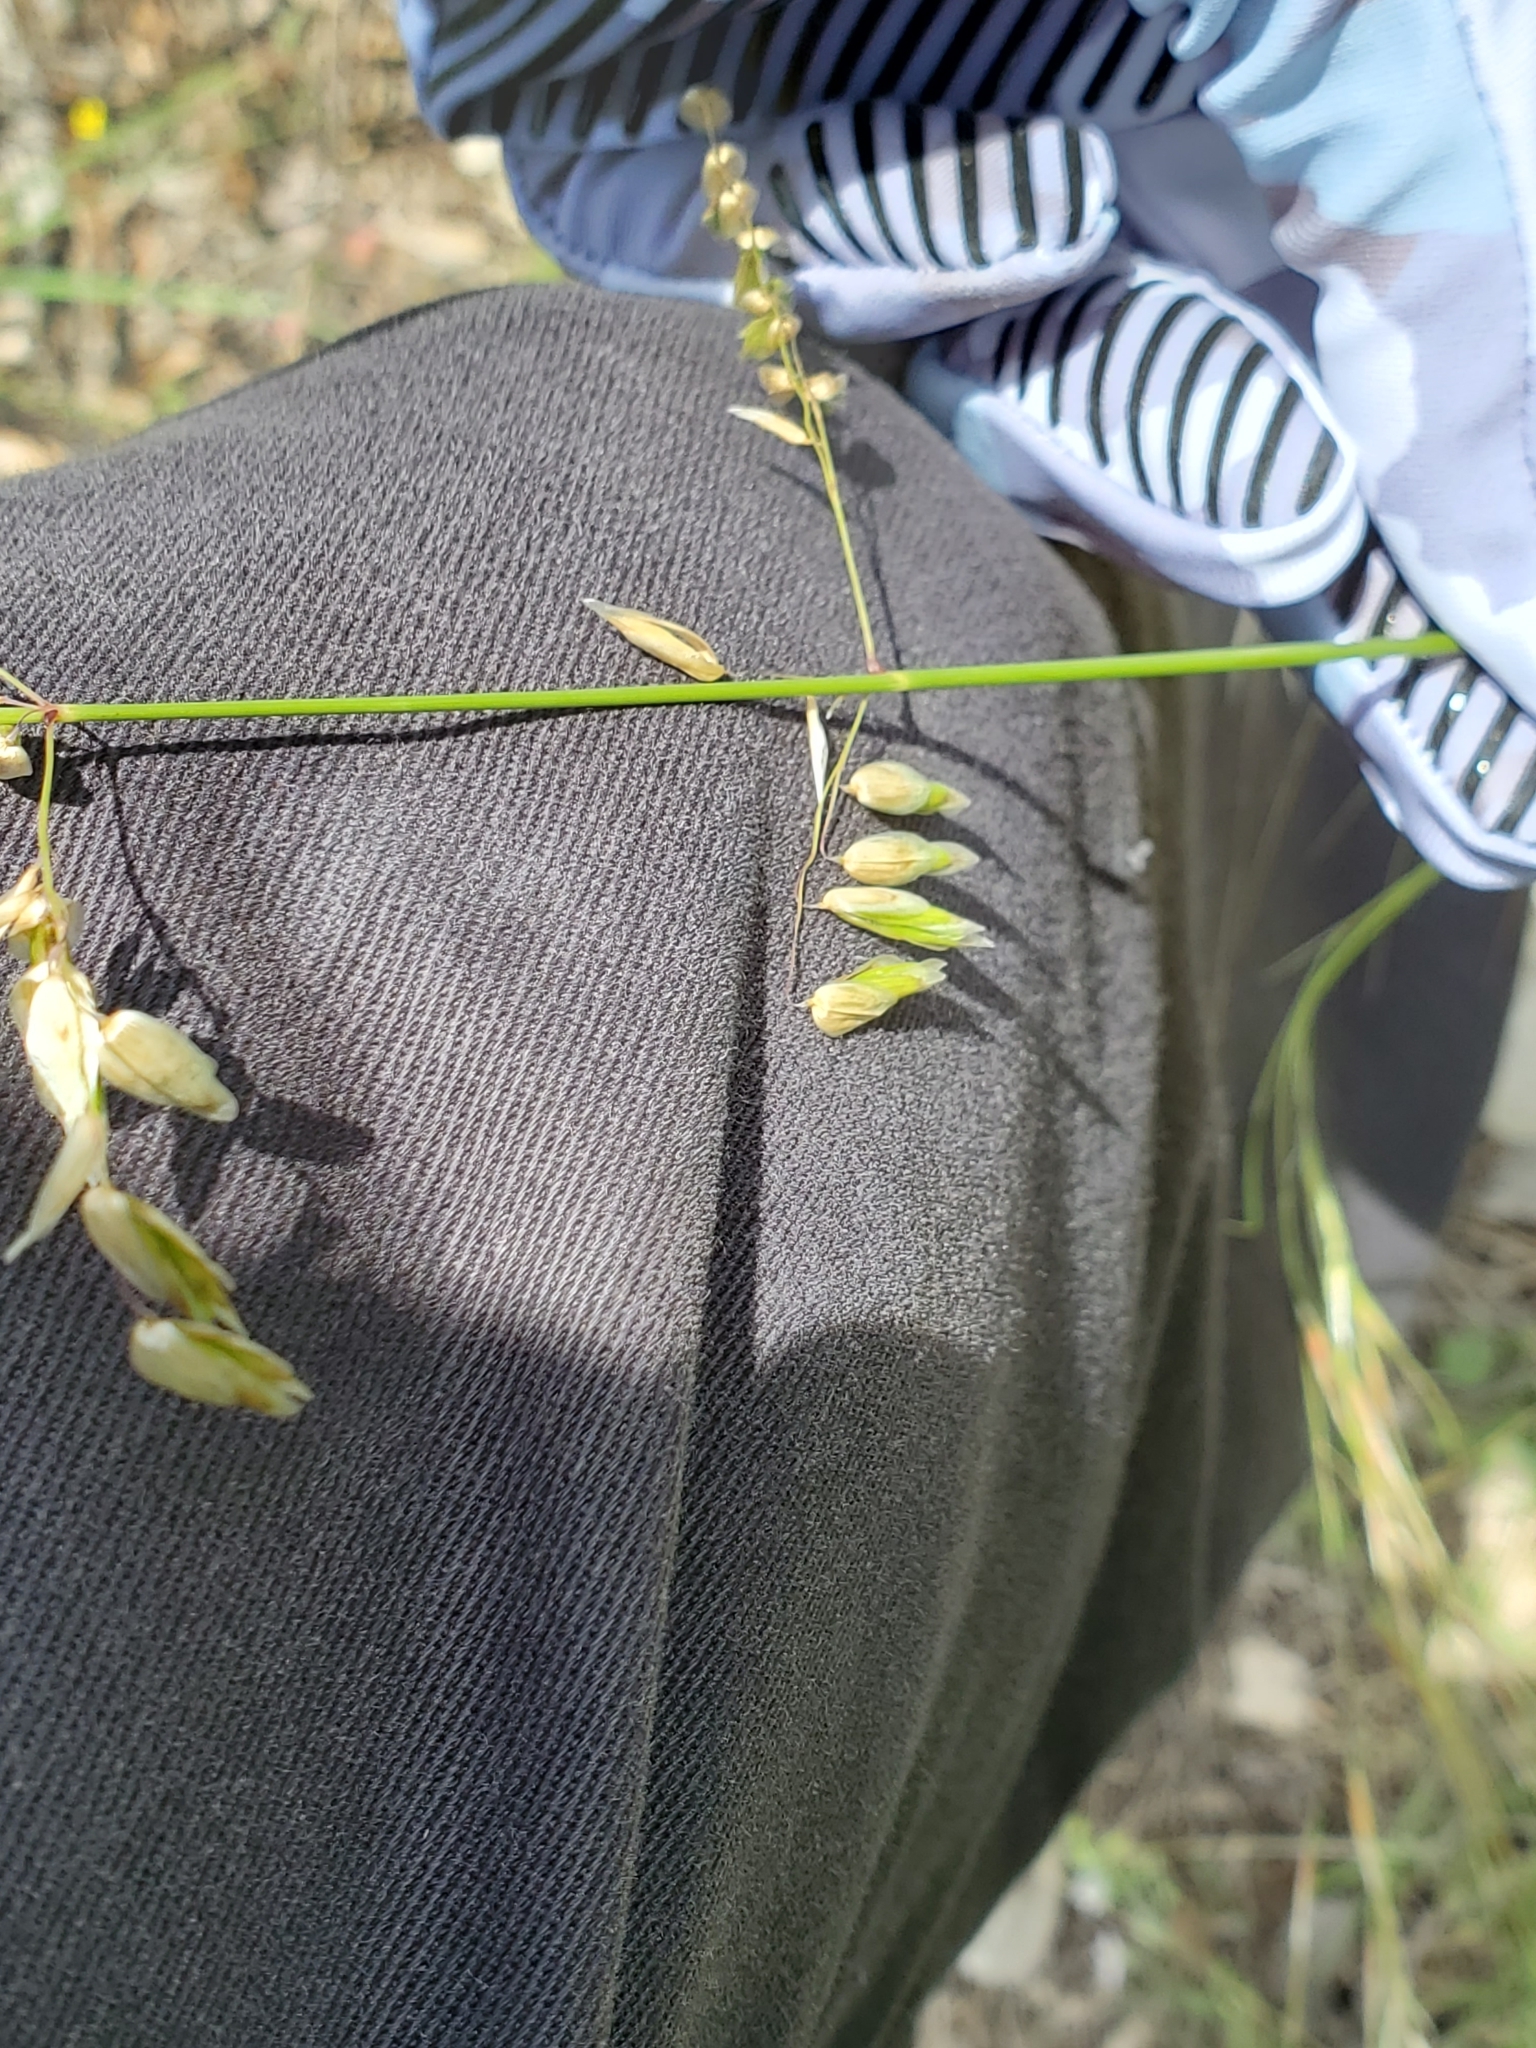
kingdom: Plantae
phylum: Tracheophyta
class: Liliopsida
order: Poales
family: Poaceae
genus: Melica
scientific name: Melica nitens
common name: Three-flower melic
